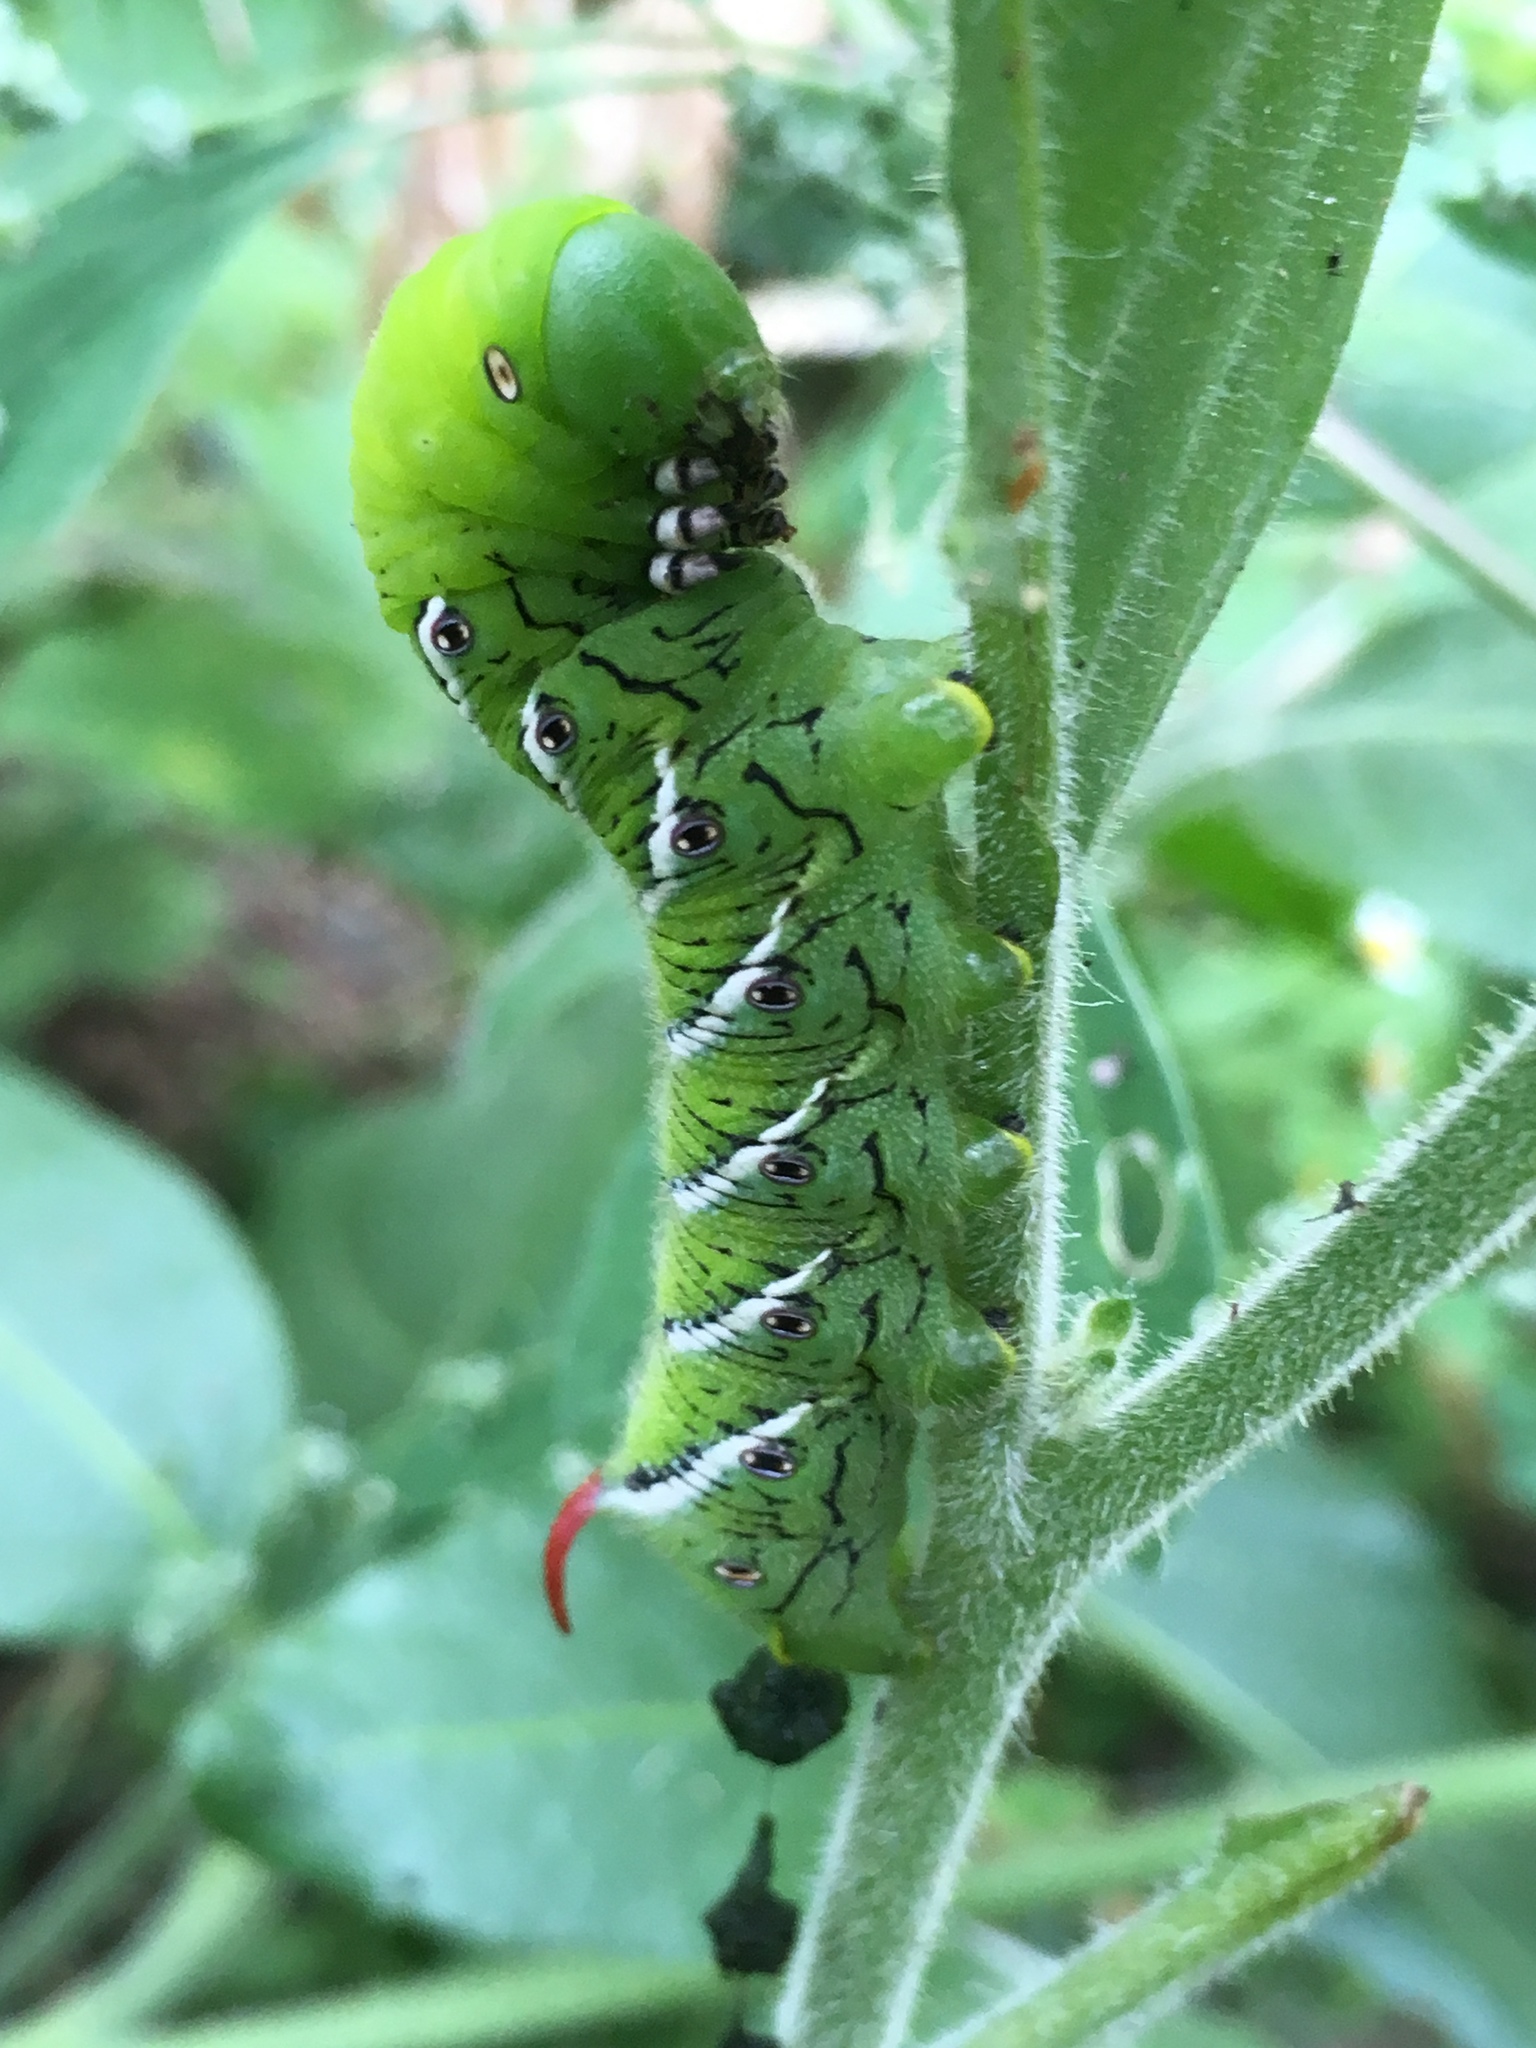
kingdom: Animalia
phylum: Arthropoda
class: Insecta
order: Lepidoptera
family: Sphingidae
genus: Manduca
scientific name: Manduca sexta
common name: Carolina sphinx
